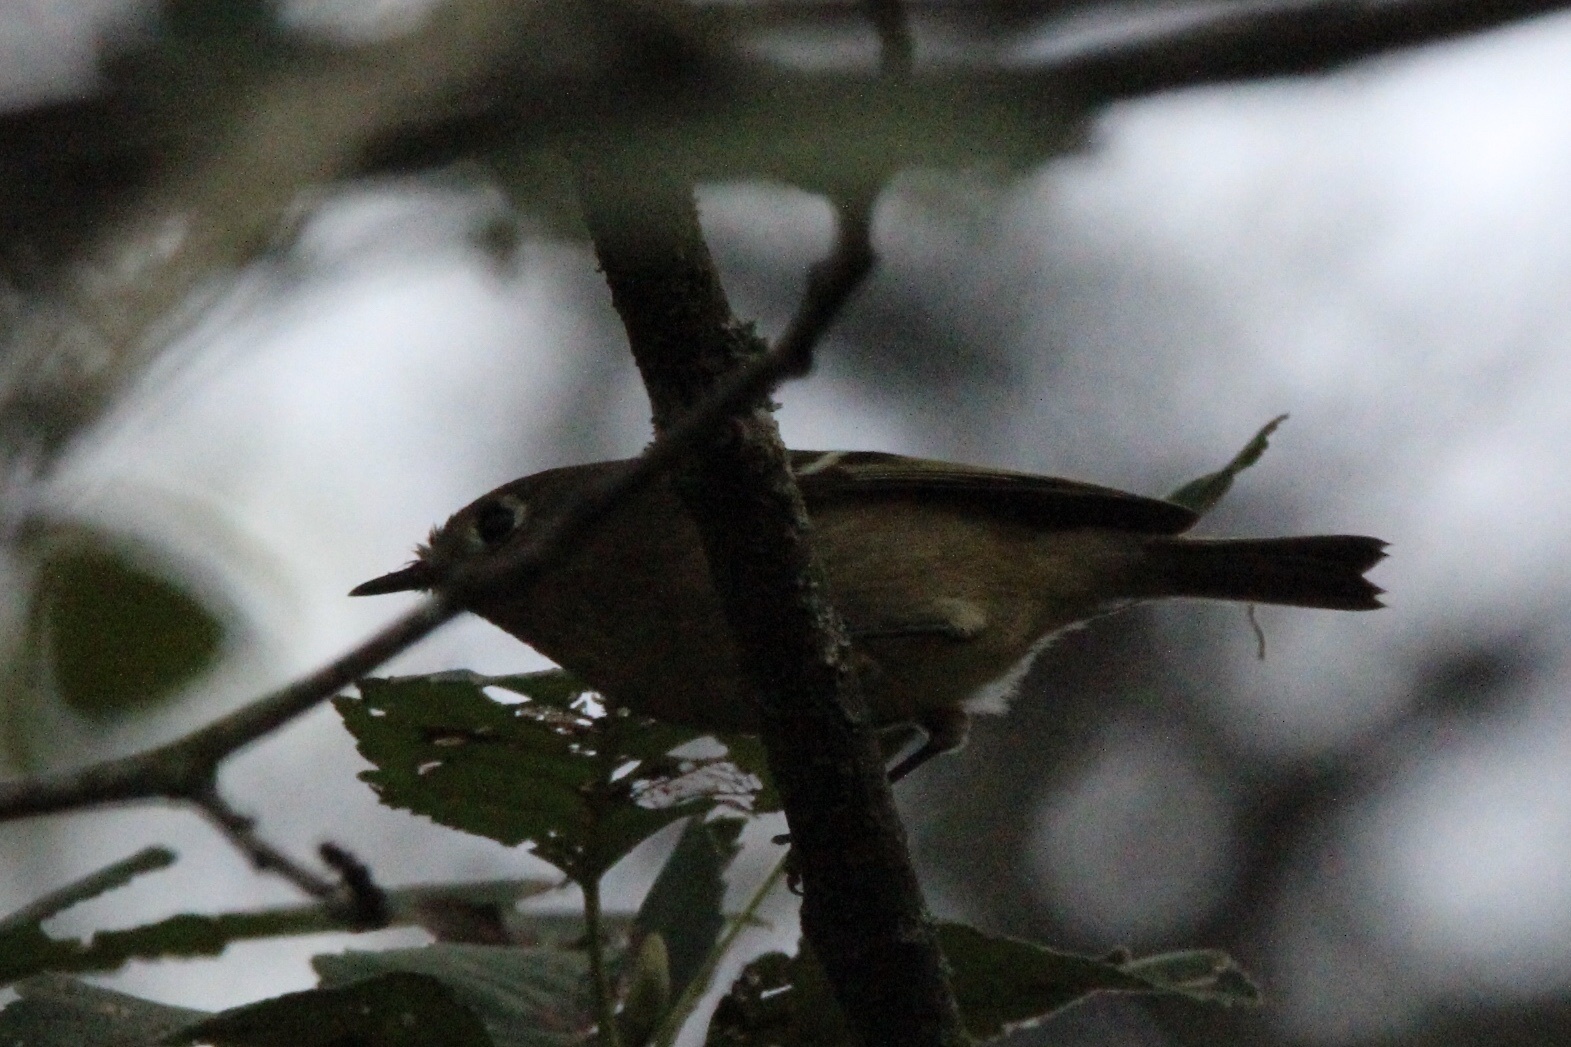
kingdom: Animalia
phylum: Chordata
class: Aves
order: Passeriformes
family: Regulidae
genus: Regulus
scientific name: Regulus calendula
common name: Ruby-crowned kinglet
